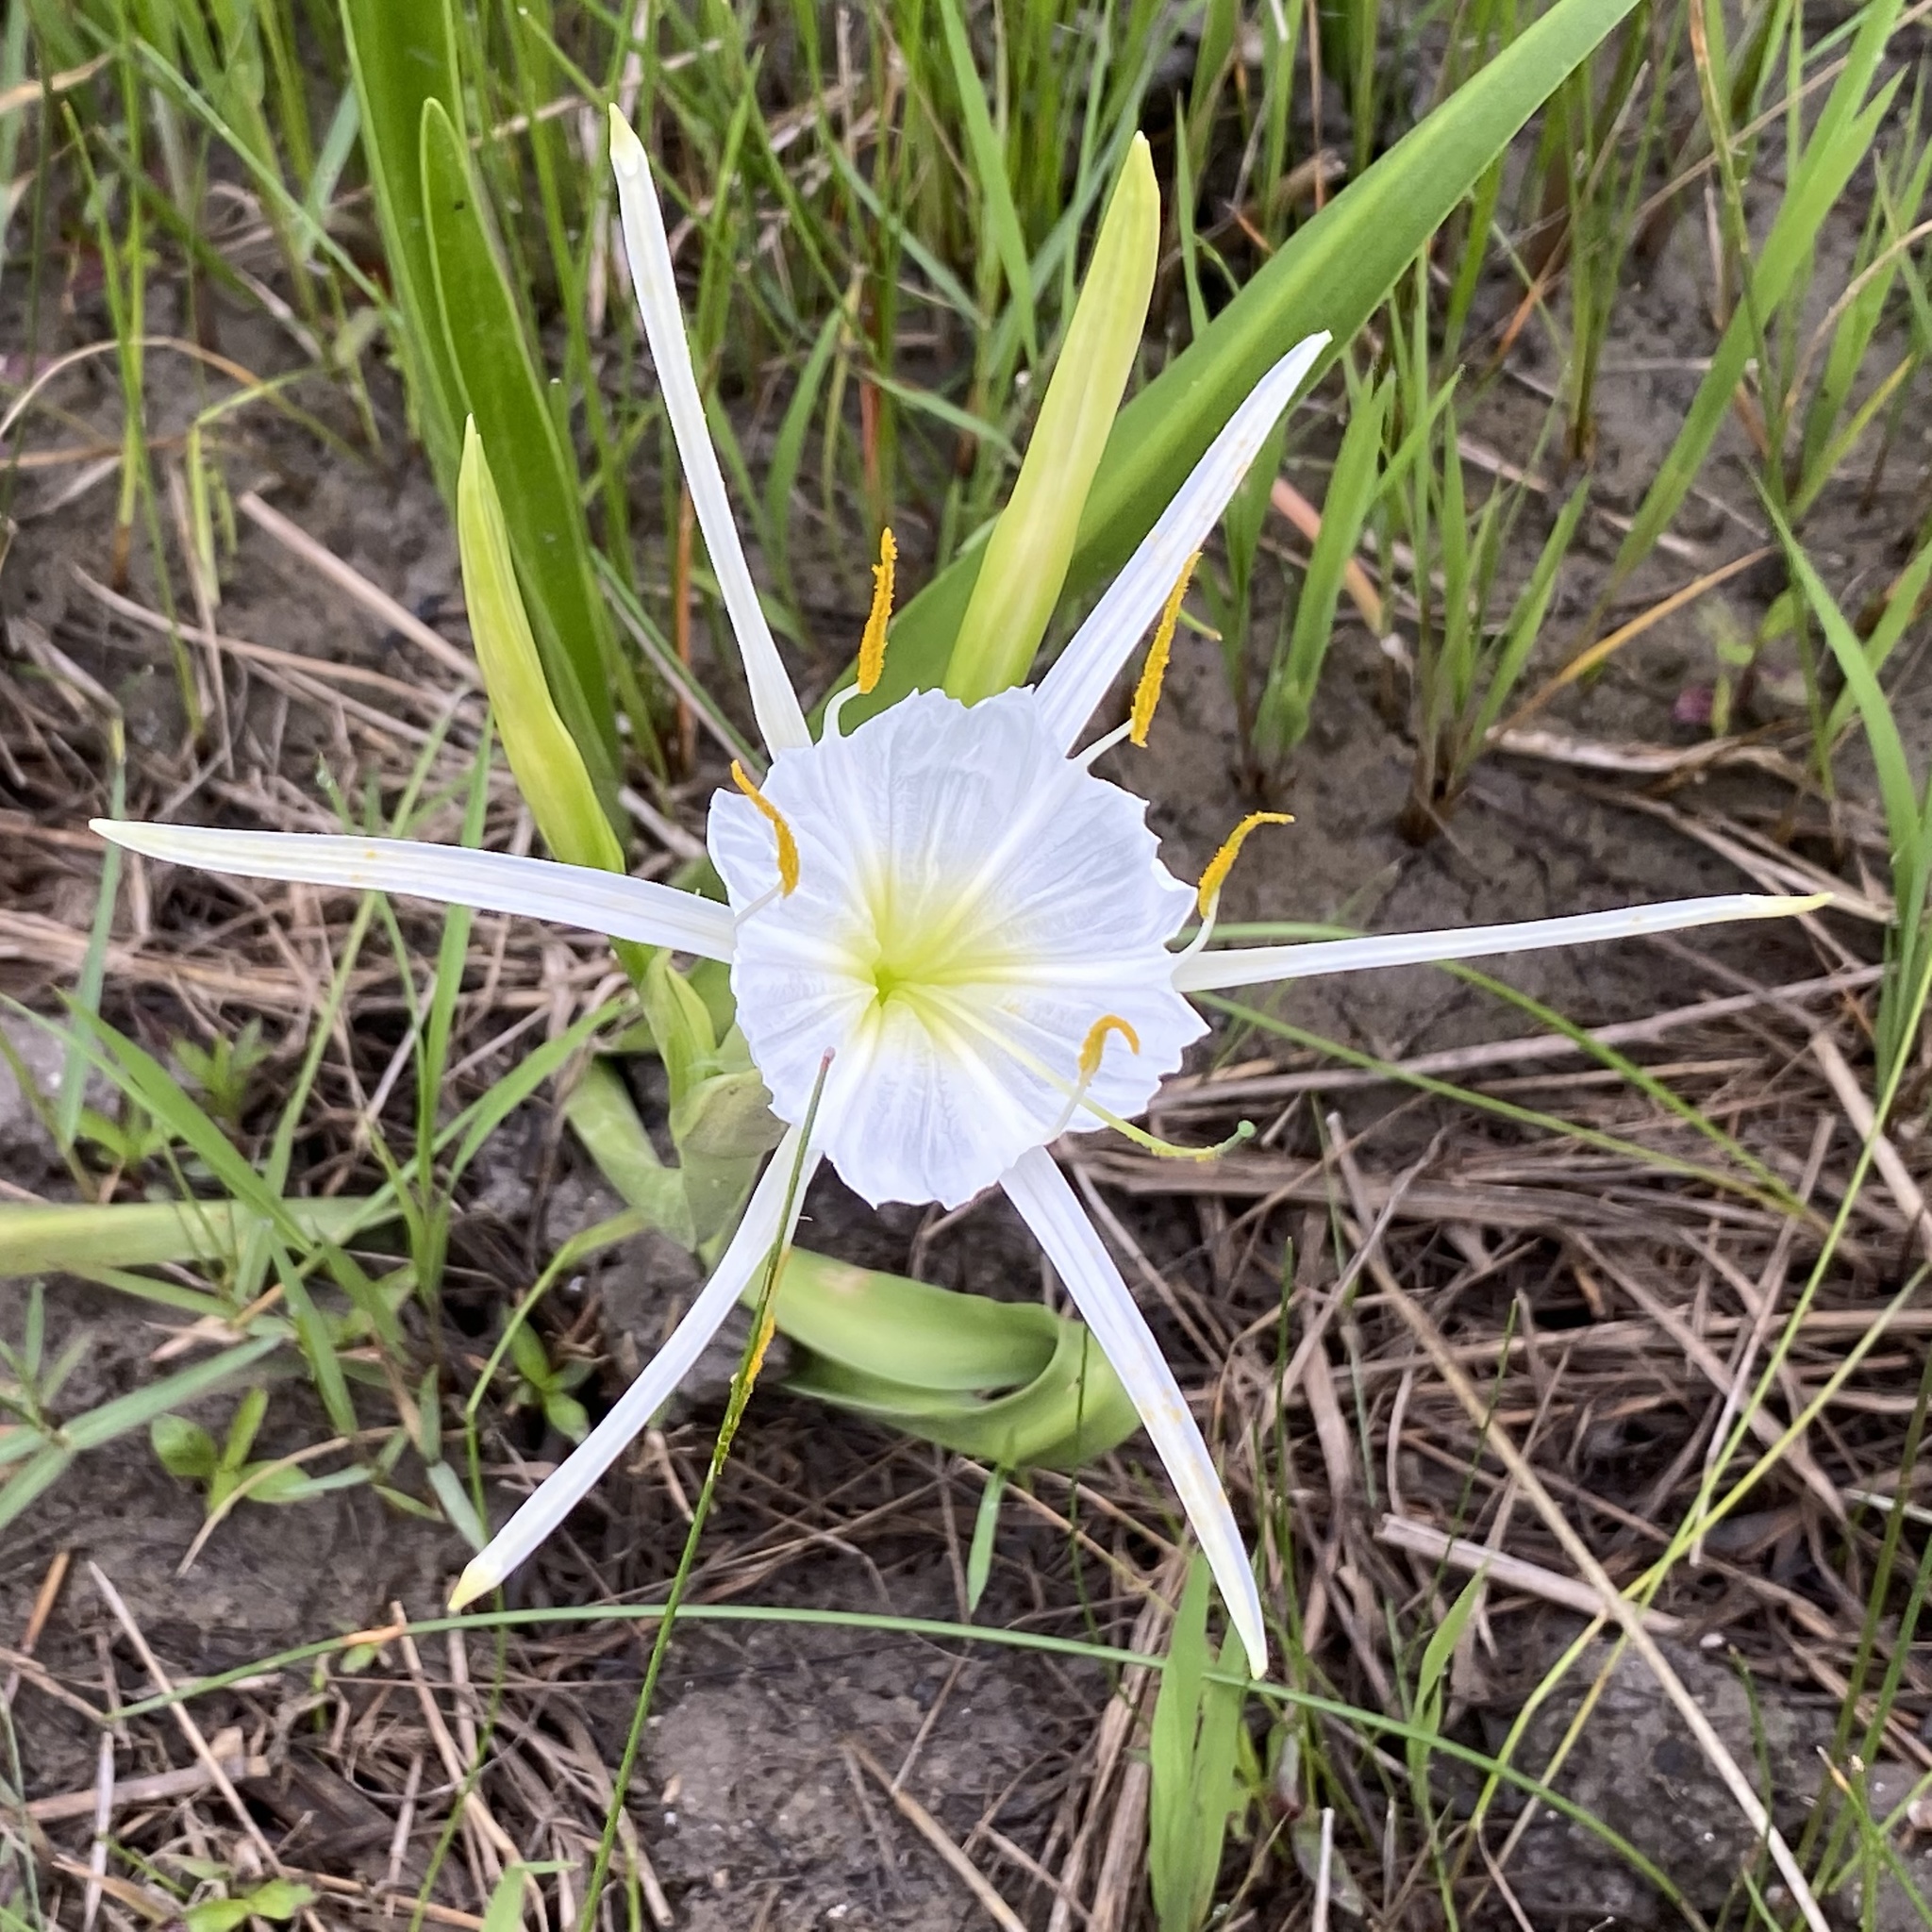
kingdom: Plantae
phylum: Tracheophyta
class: Liliopsida
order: Asparagales
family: Amaryllidaceae
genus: Hymenocallis
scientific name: Hymenocallis liriosme
